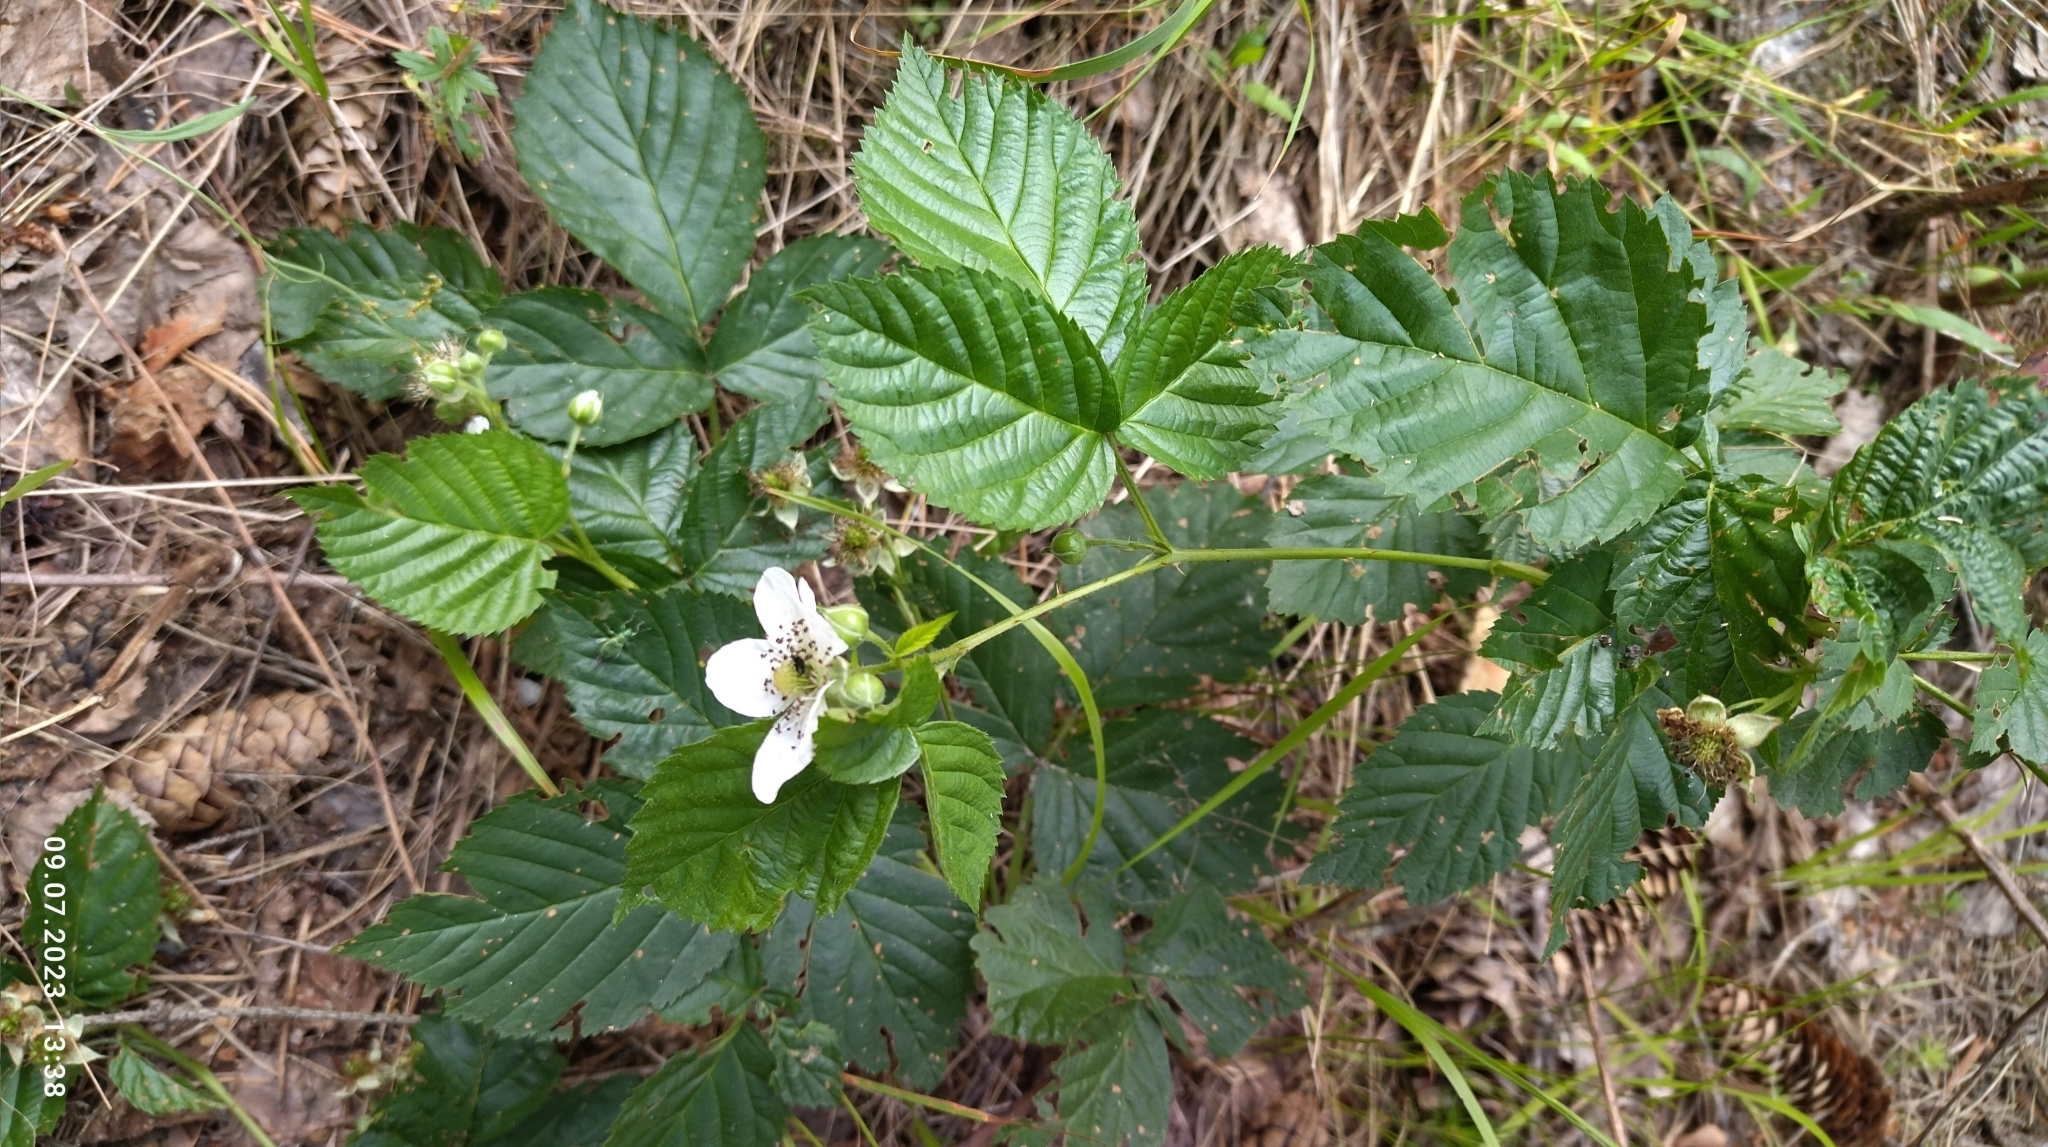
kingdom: Plantae
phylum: Tracheophyta
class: Magnoliopsida
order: Rosales
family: Rosaceae
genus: Rubus
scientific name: Rubus polonicus
